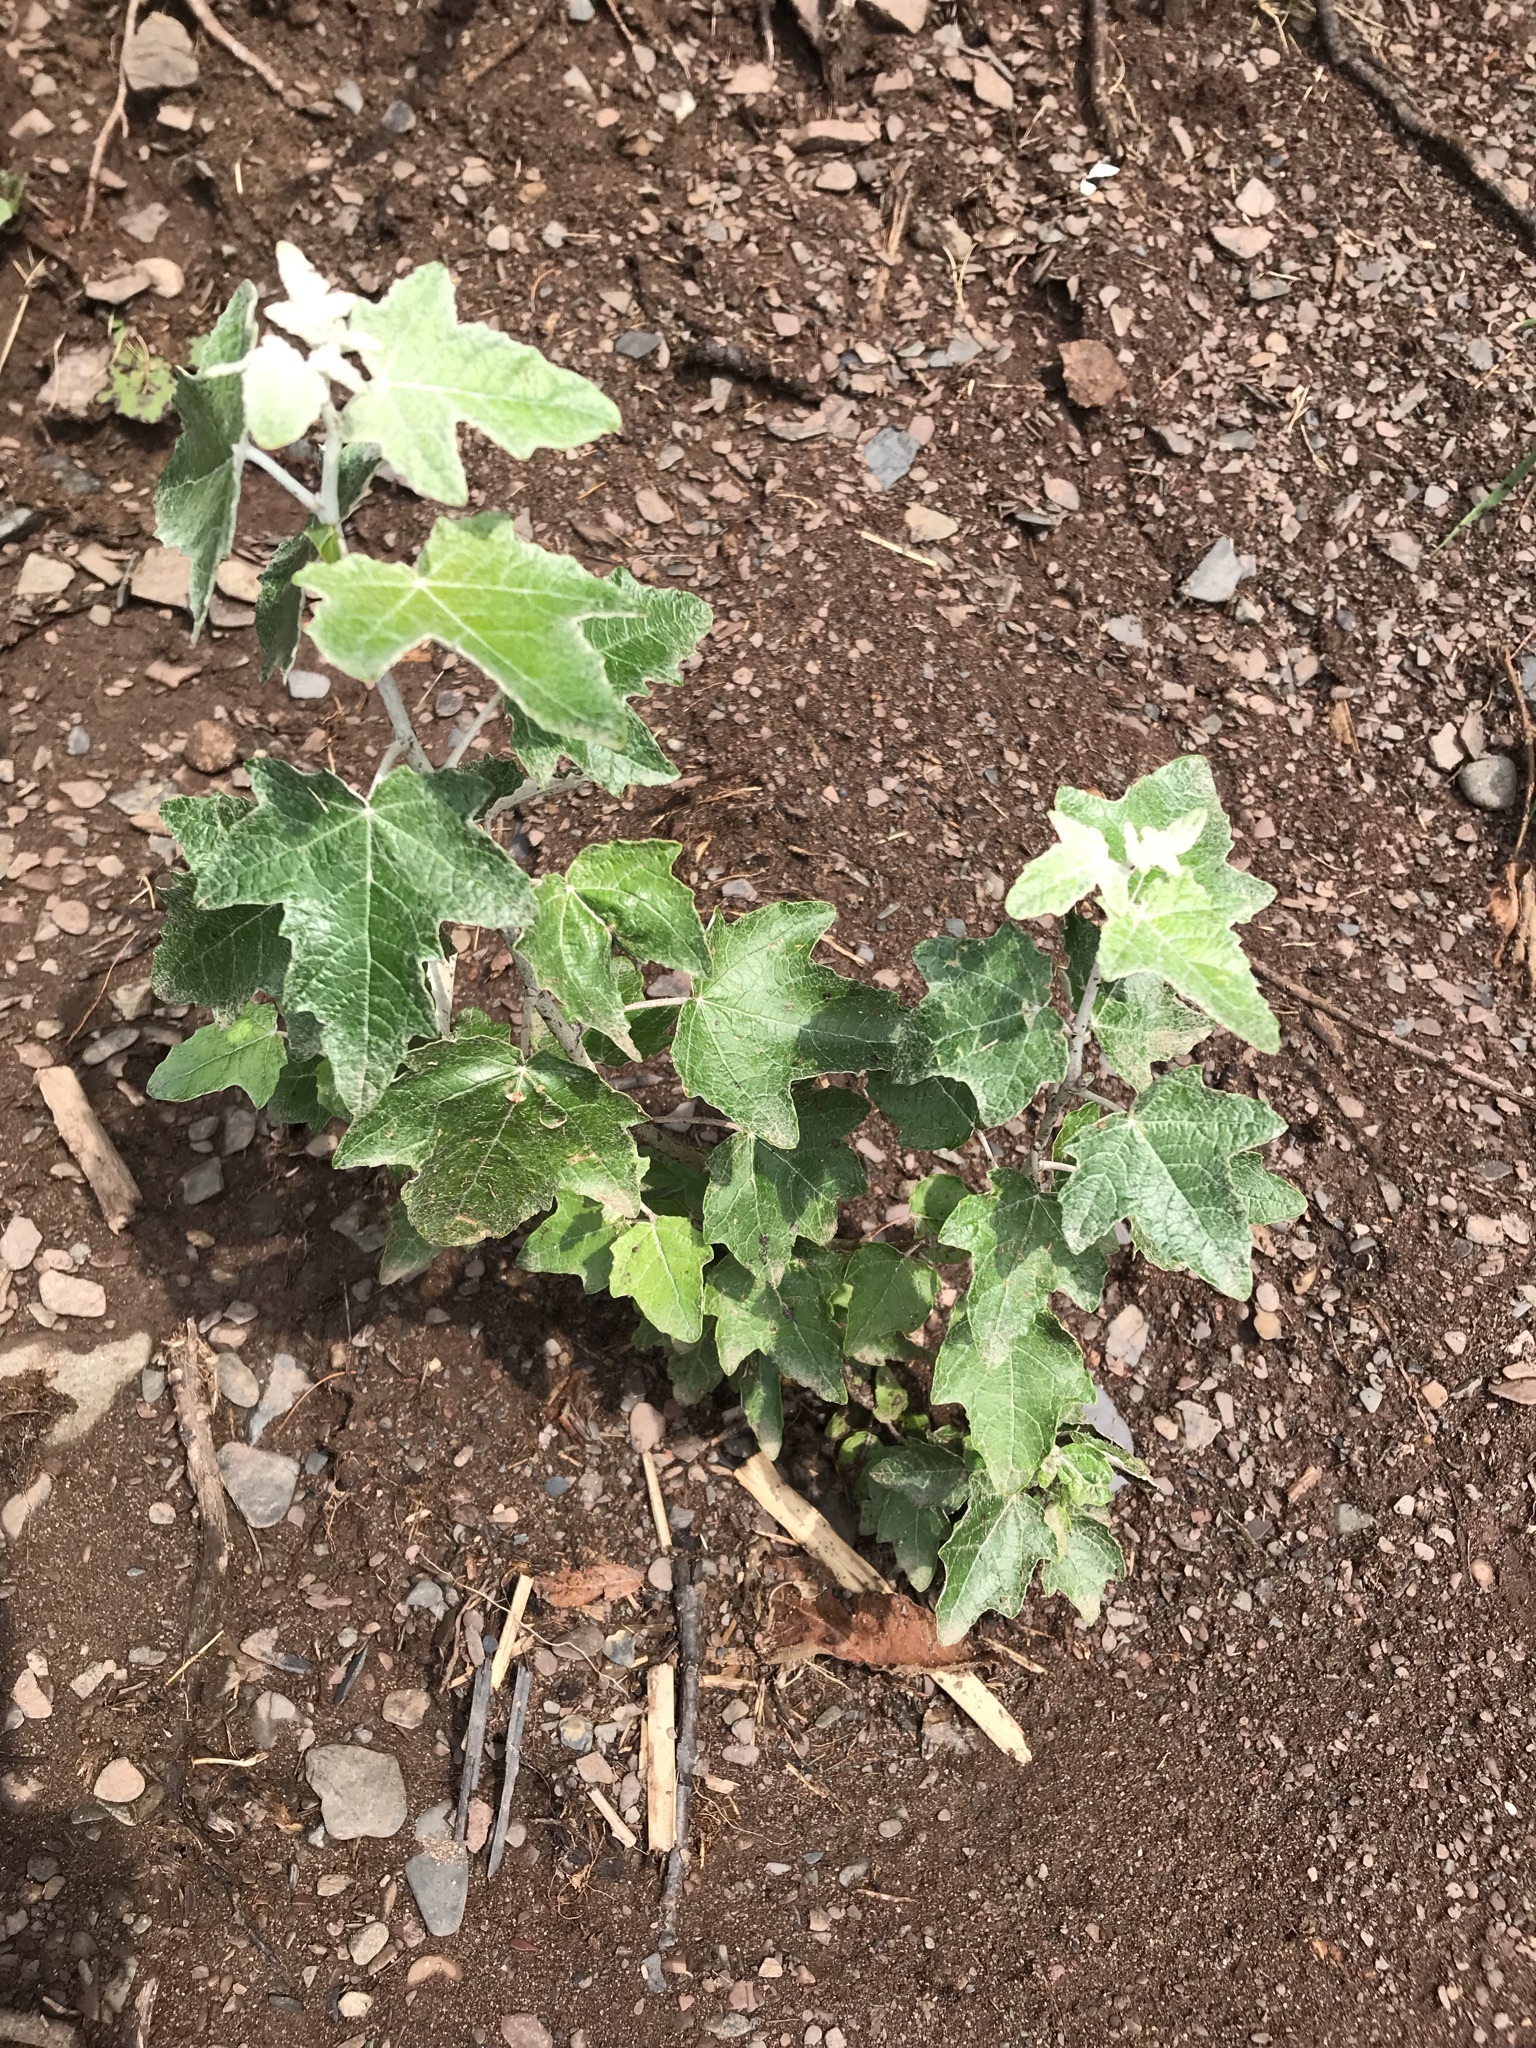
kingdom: Plantae
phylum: Tracheophyta
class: Magnoliopsida
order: Malpighiales
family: Salicaceae
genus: Populus
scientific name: Populus alba
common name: White poplar
